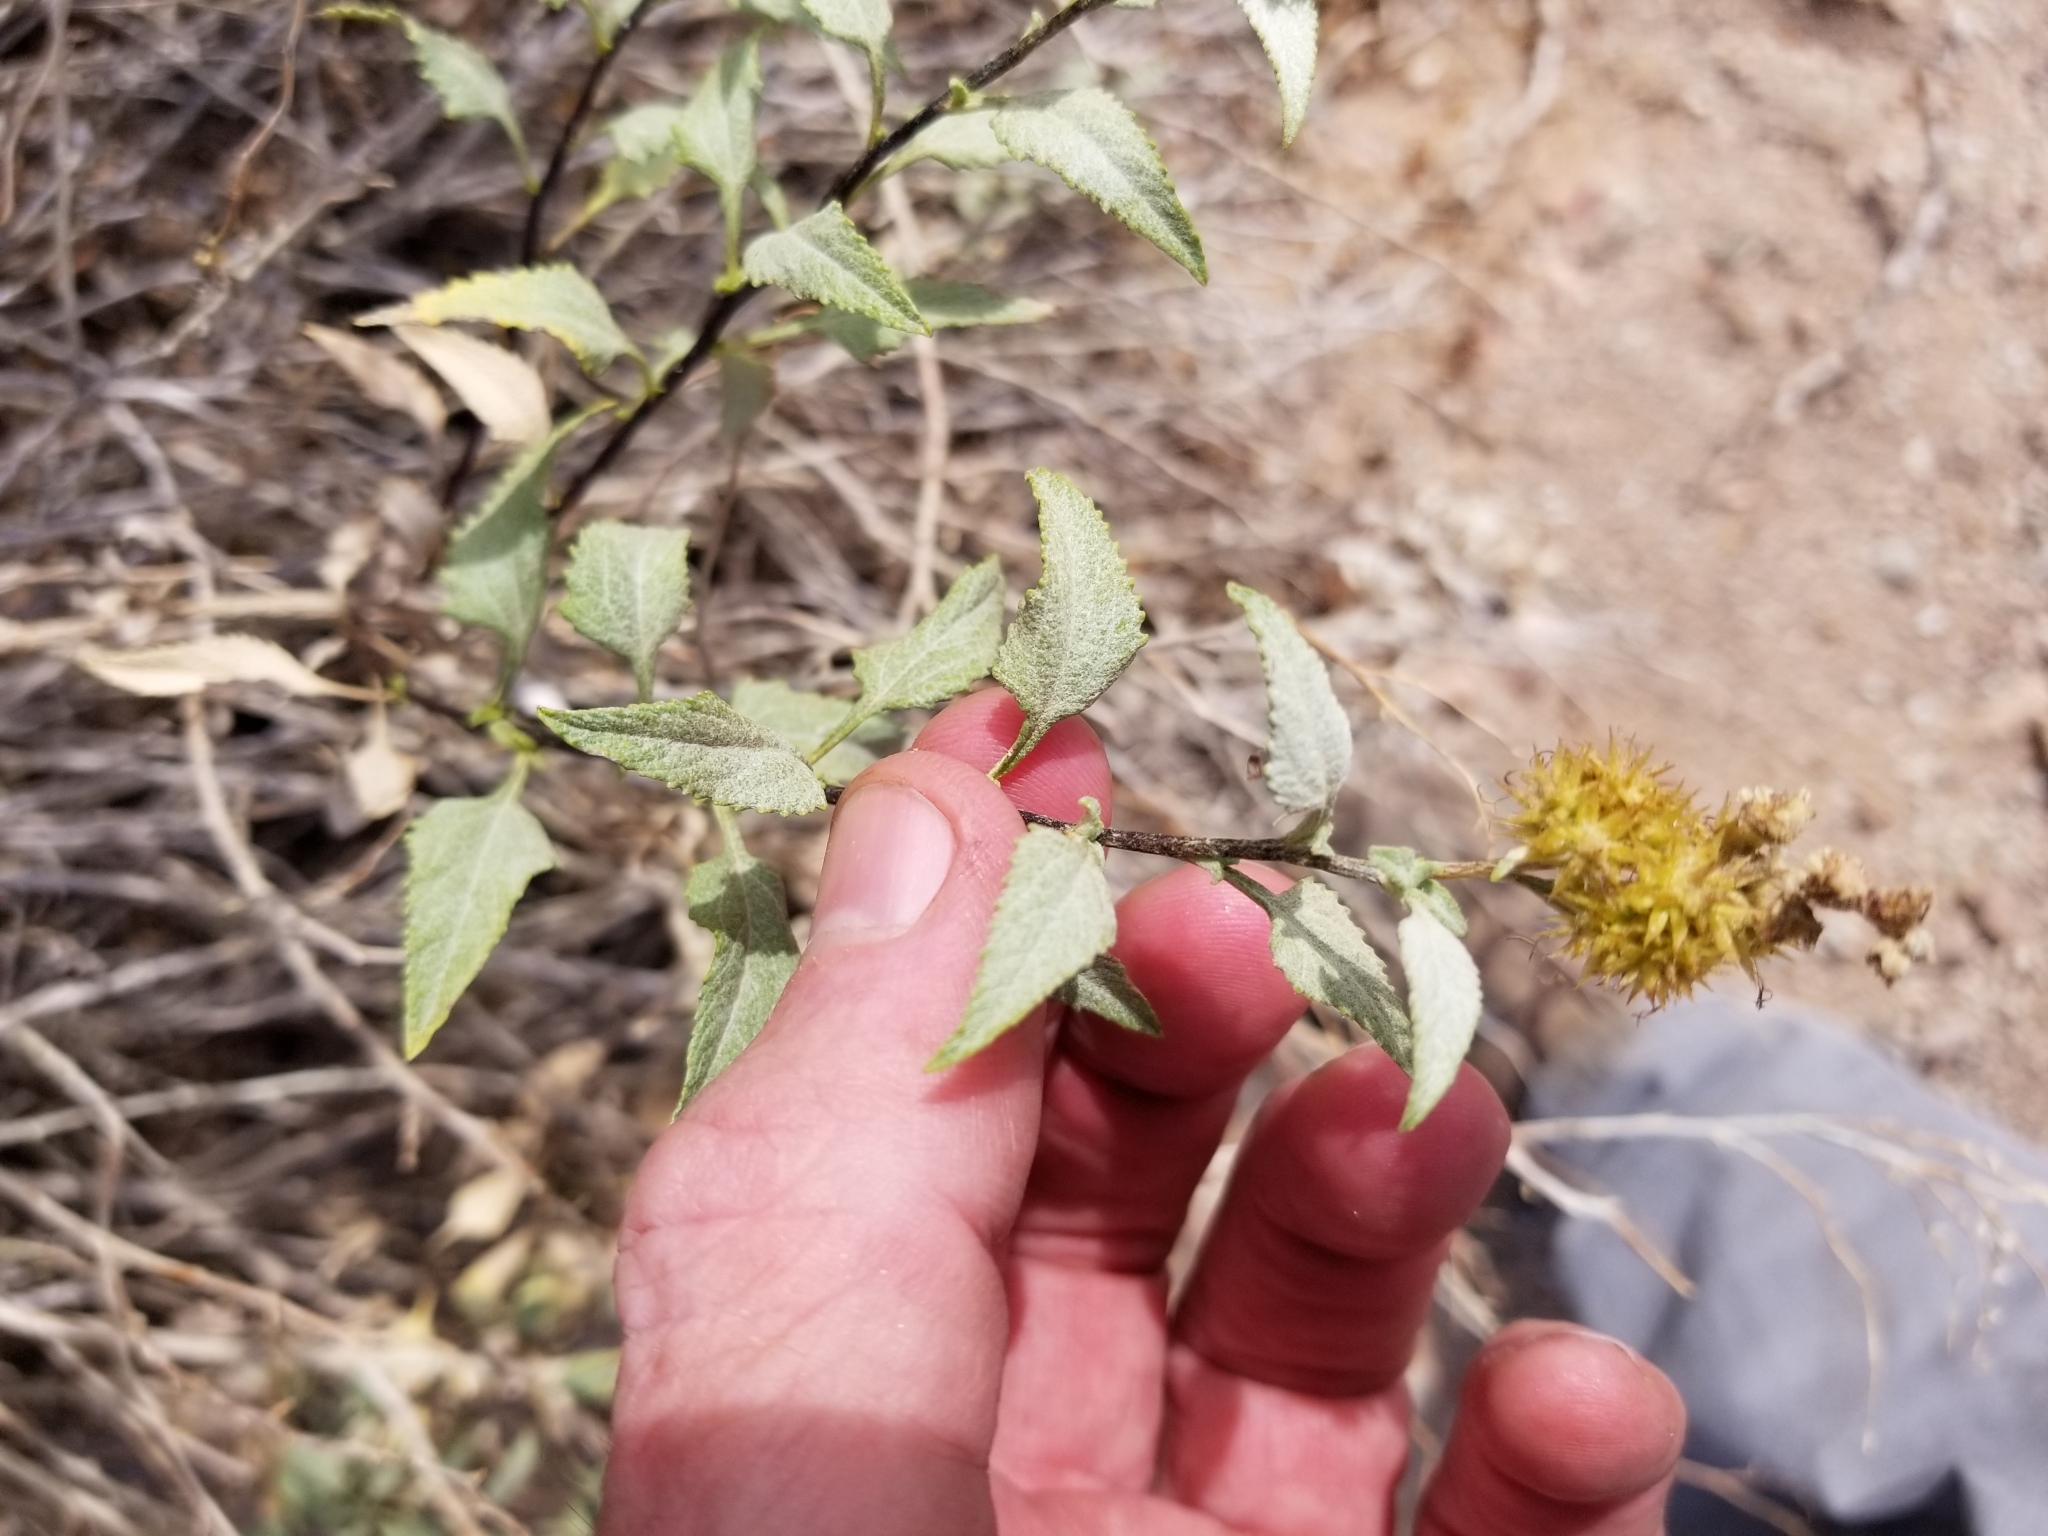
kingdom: Plantae
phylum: Tracheophyta
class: Magnoliopsida
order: Asterales
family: Asteraceae
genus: Ambrosia
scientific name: Ambrosia deltoidea
